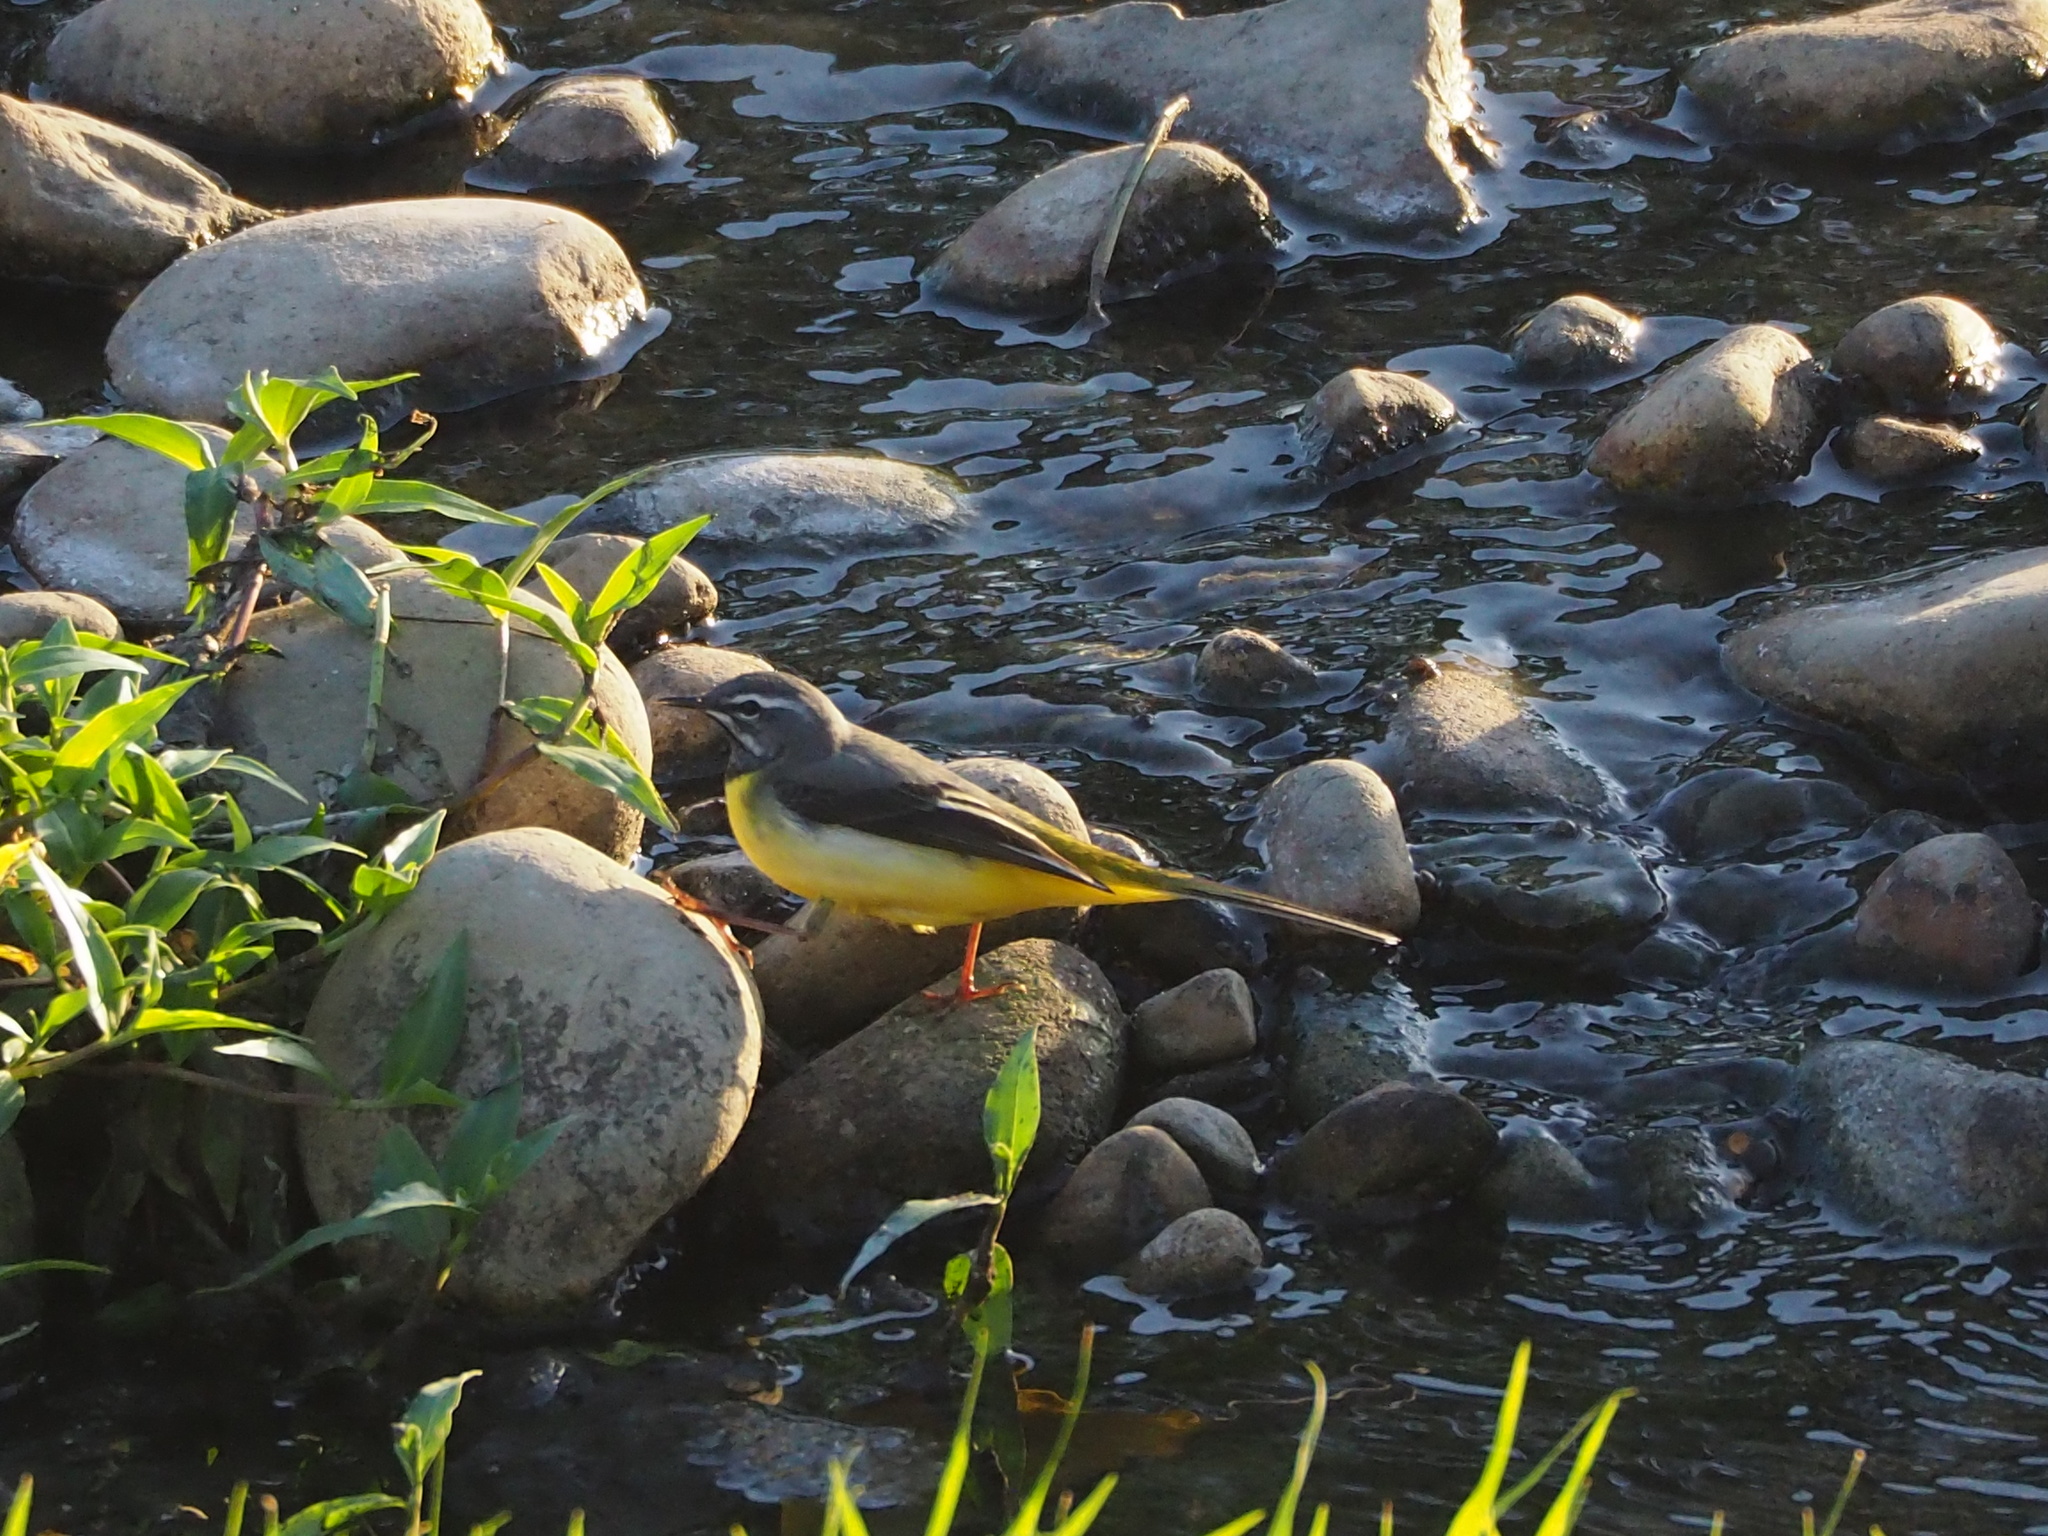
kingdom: Animalia
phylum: Chordata
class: Aves
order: Passeriformes
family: Motacillidae
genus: Motacilla
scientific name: Motacilla cinerea
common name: Grey wagtail
